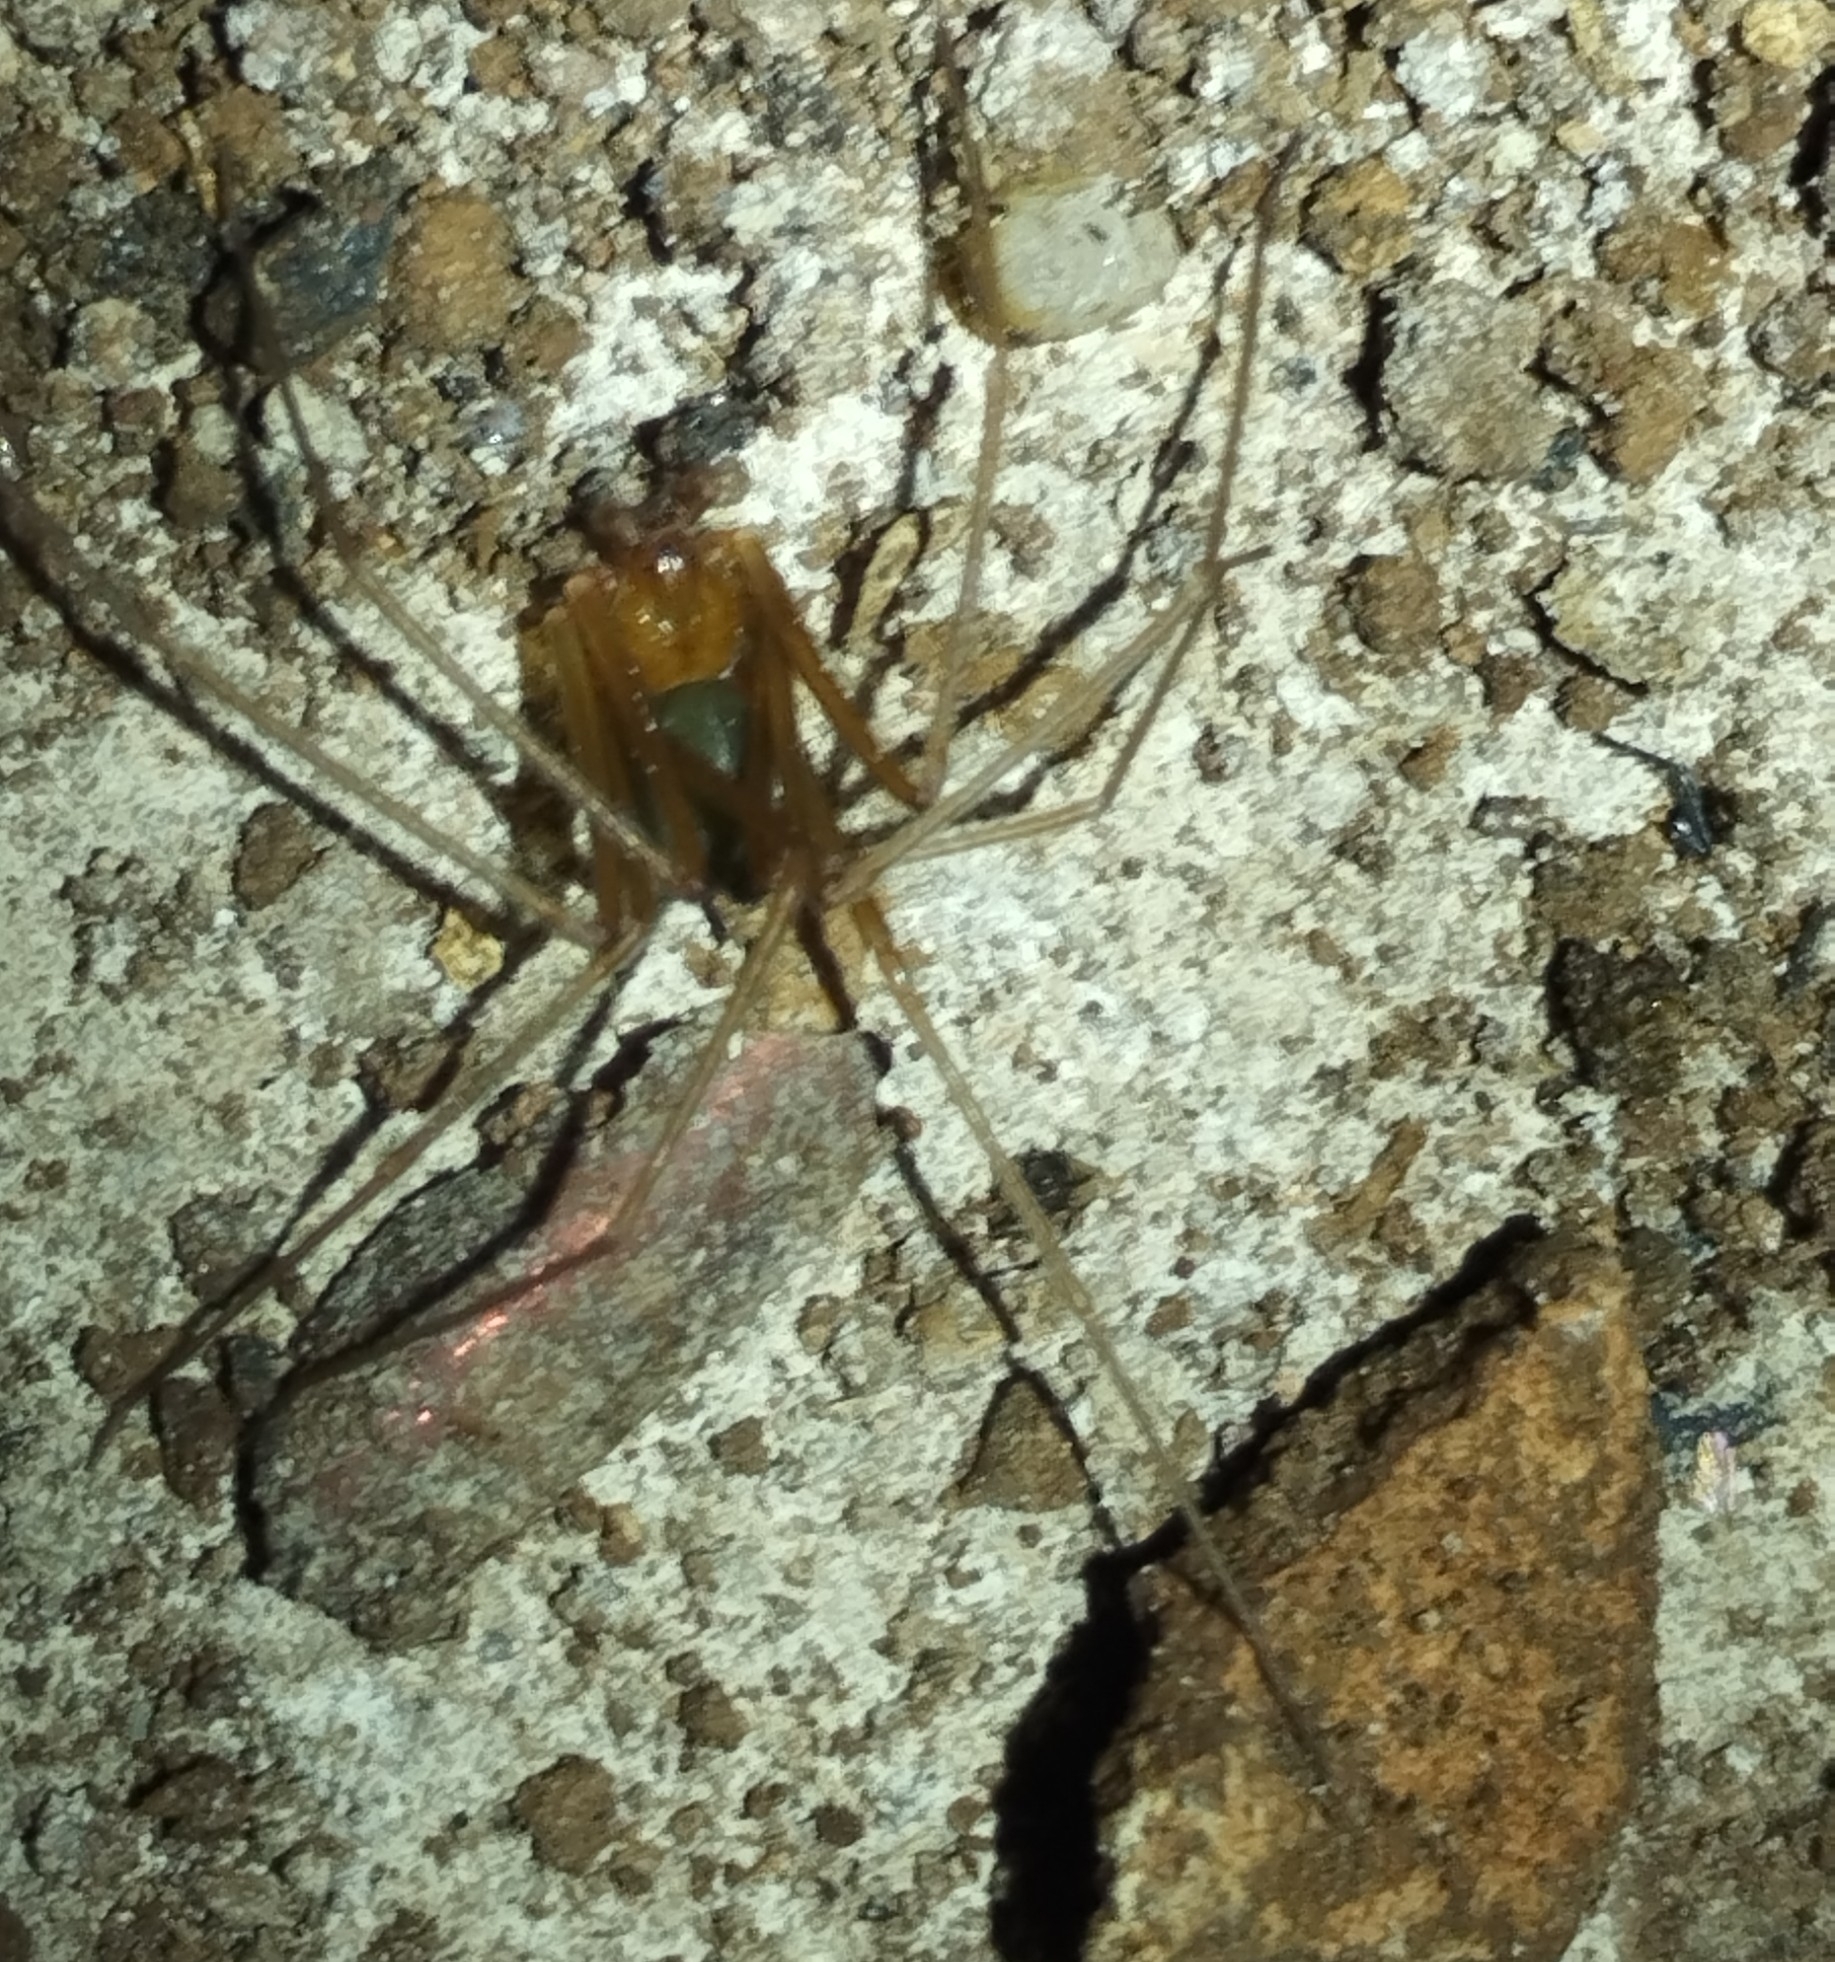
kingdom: Animalia
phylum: Arthropoda
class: Arachnida
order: Araneae
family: Sicariidae
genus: Loxosceles
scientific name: Loxosceles yucatana
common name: Violin spiders
